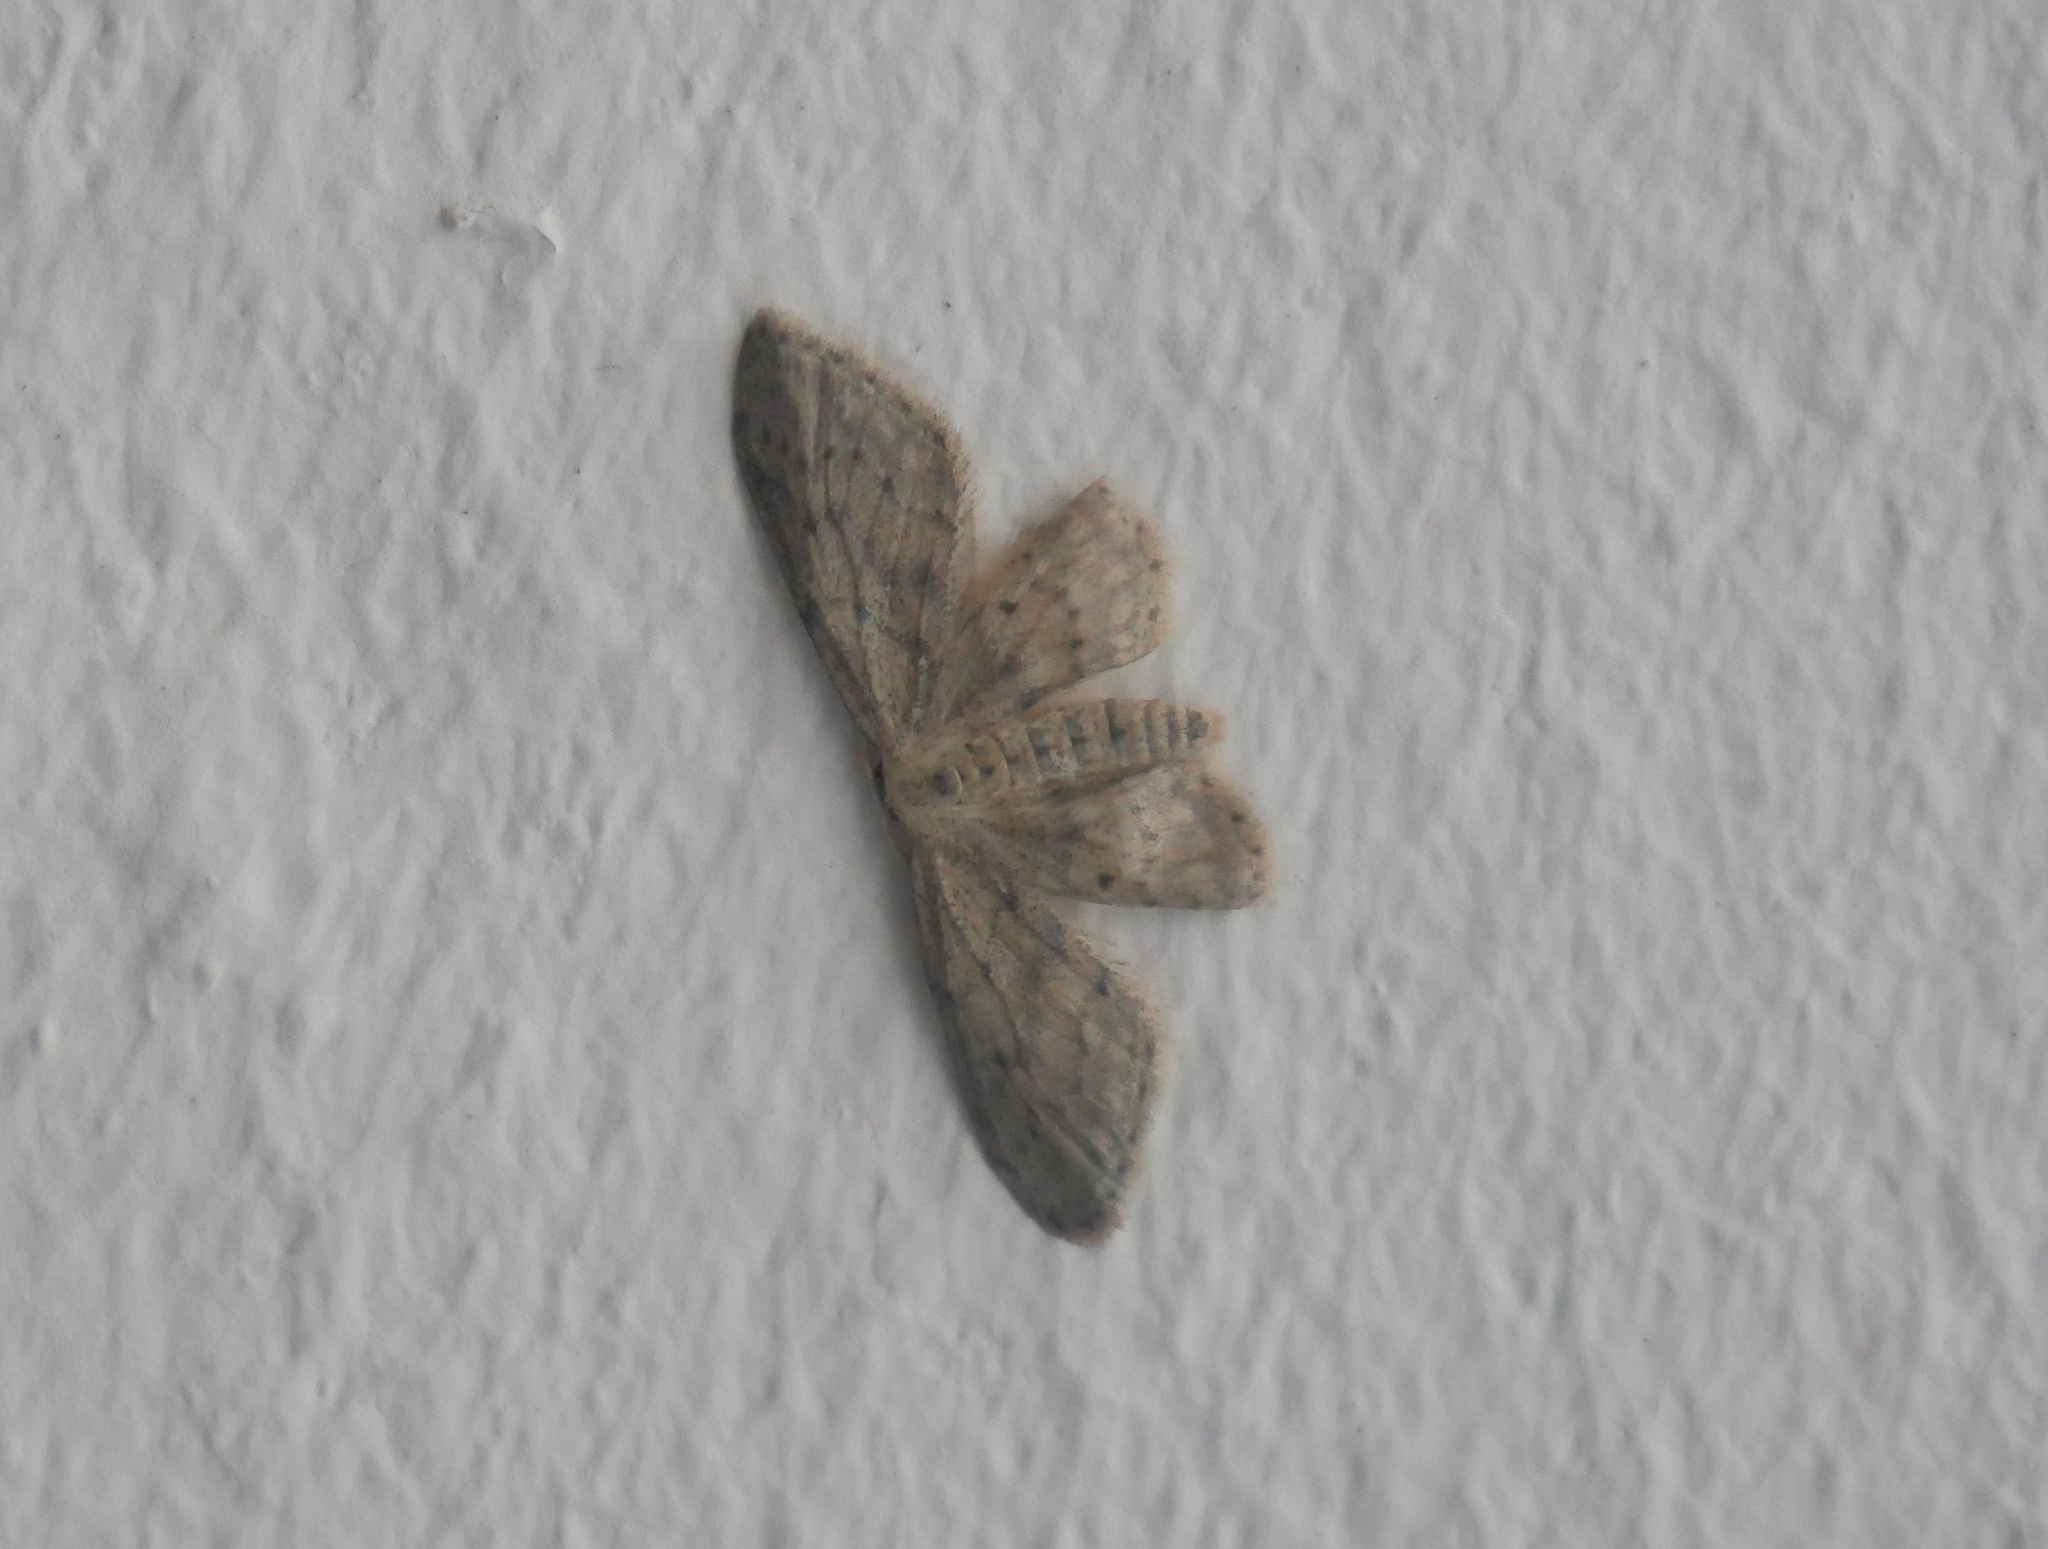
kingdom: Animalia
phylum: Arthropoda
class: Insecta
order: Lepidoptera
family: Geometridae
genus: Idaea
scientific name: Idaea seriata
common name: Small dusty wave
